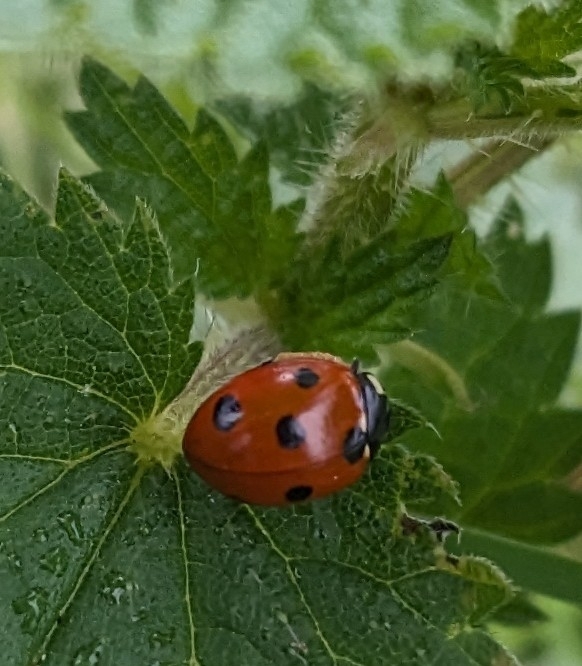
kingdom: Animalia
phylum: Arthropoda
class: Insecta
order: Coleoptera
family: Coccinellidae
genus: Coccinella
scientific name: Coccinella septempunctata
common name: Sevenspotted lady beetle
